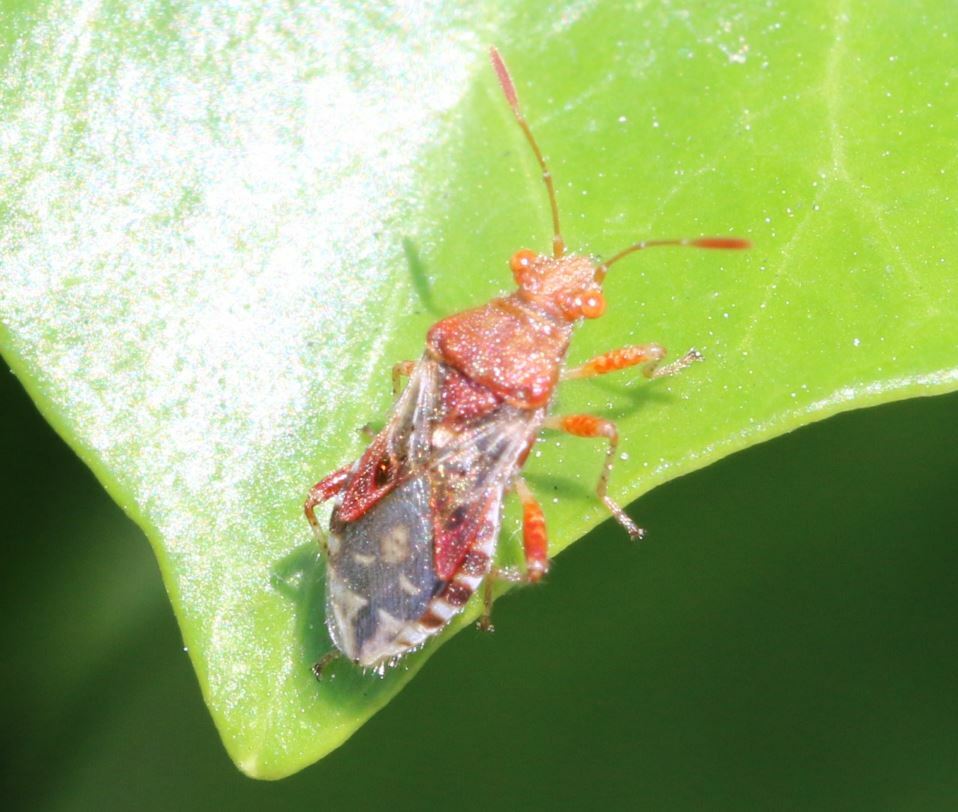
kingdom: Animalia
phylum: Arthropoda
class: Insecta
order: Hemiptera
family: Rhopalidae
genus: Rhopalus
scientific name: Rhopalus subrufus
